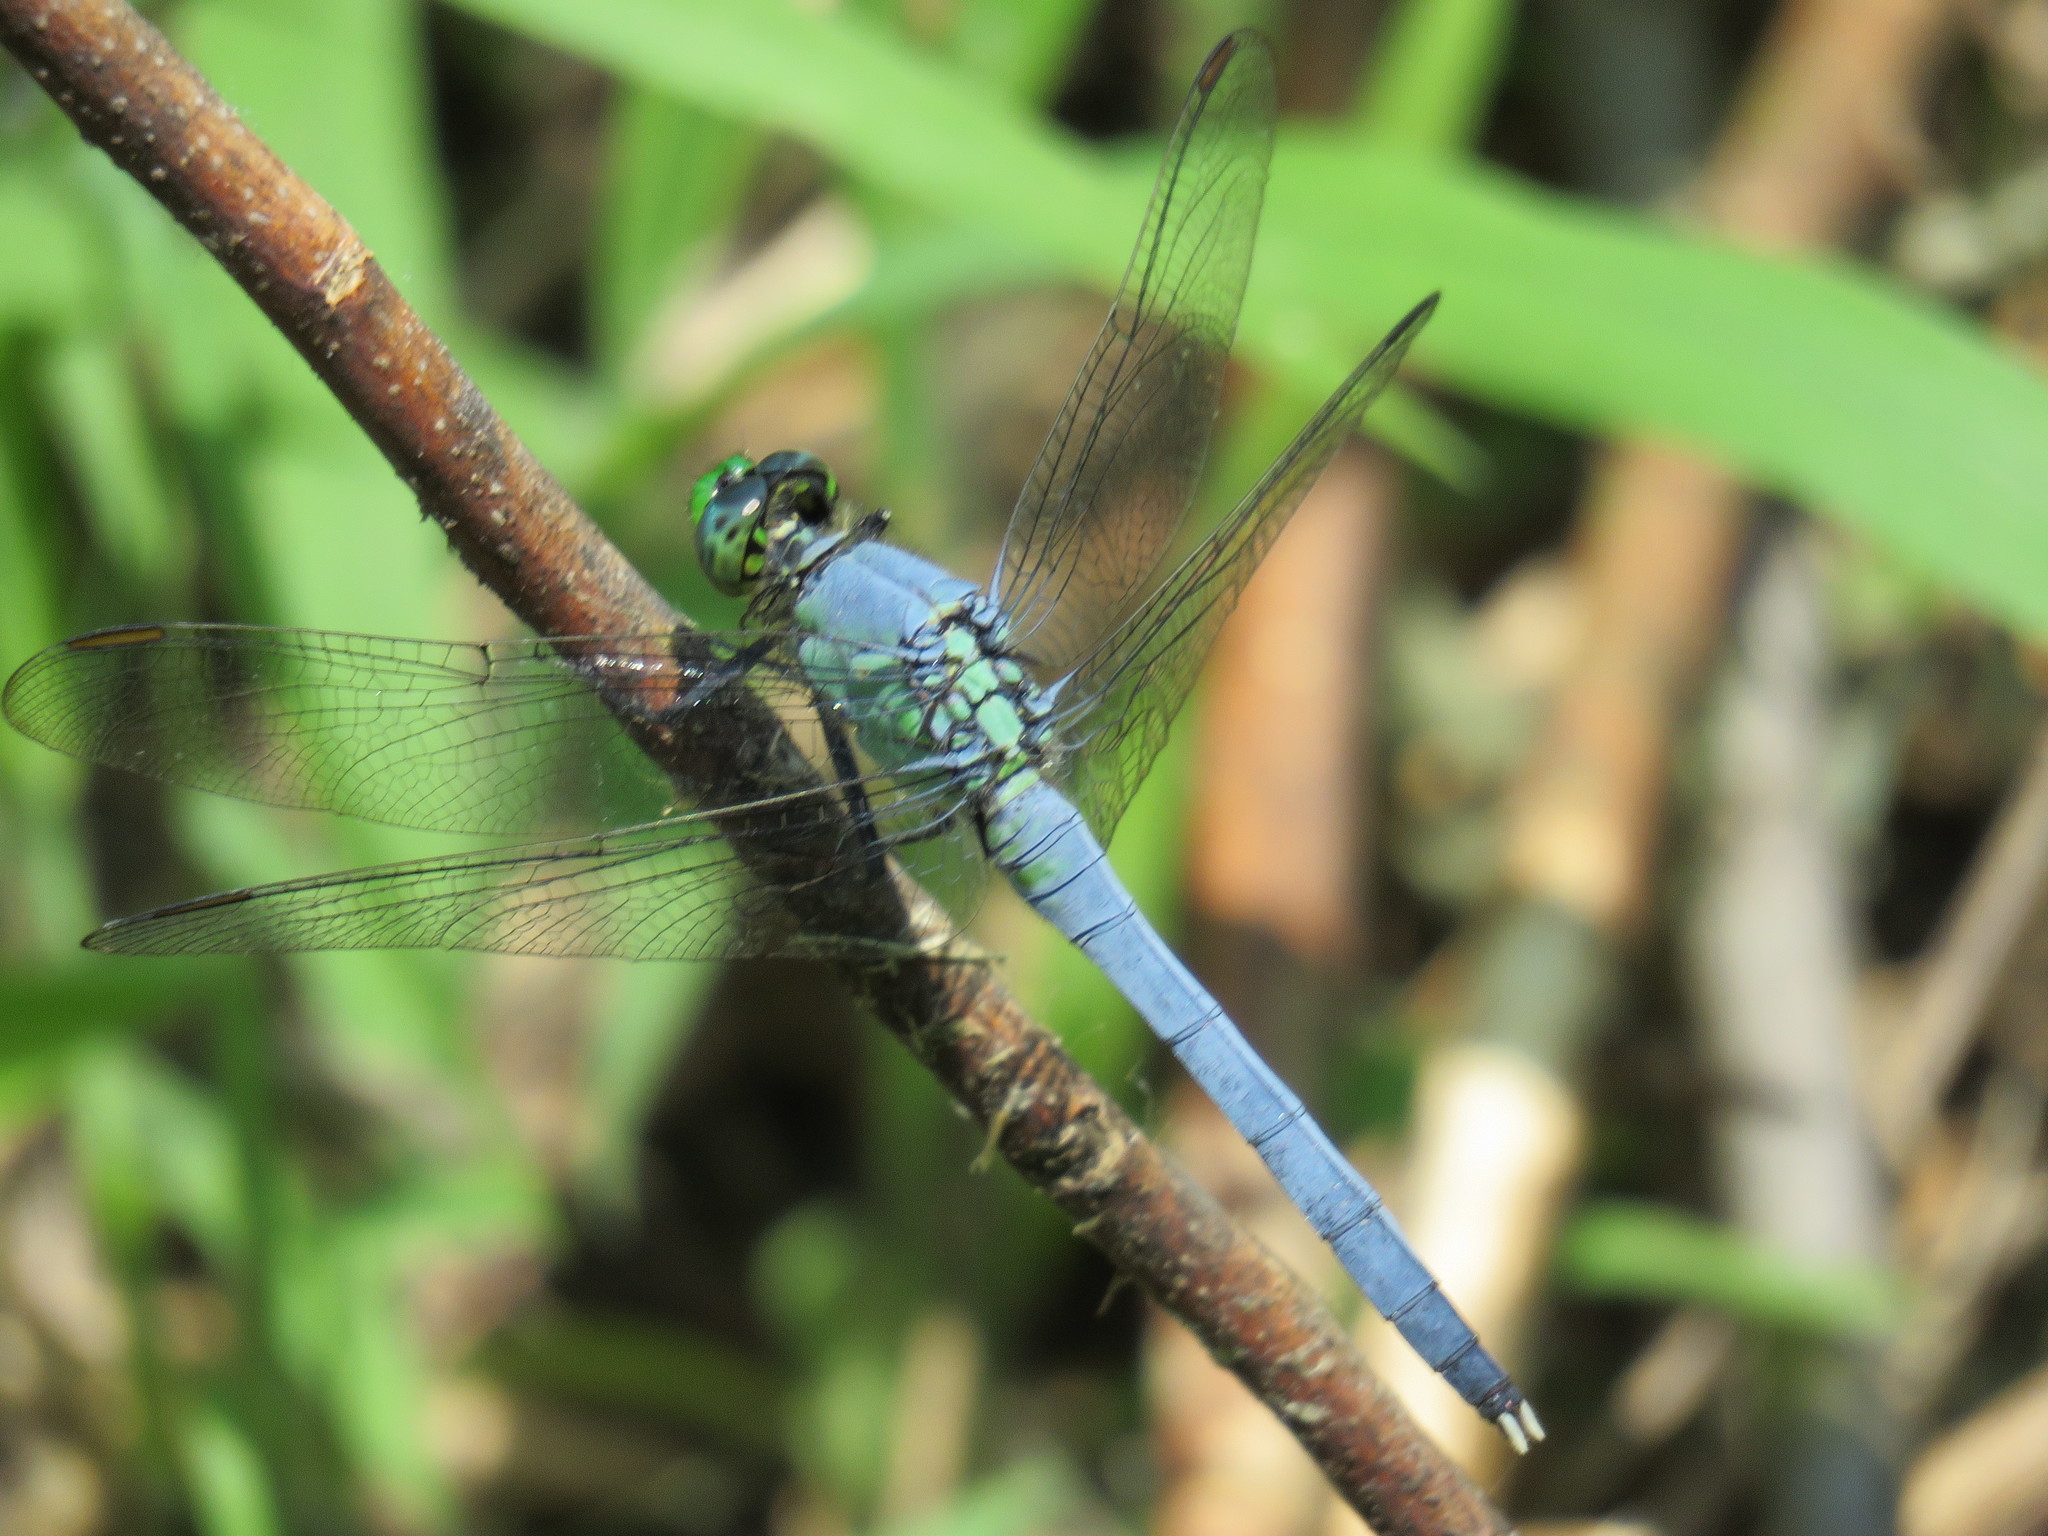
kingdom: Animalia
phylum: Arthropoda
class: Insecta
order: Odonata
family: Libellulidae
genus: Erythemis
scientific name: Erythemis simplicicollis
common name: Eastern pondhawk
